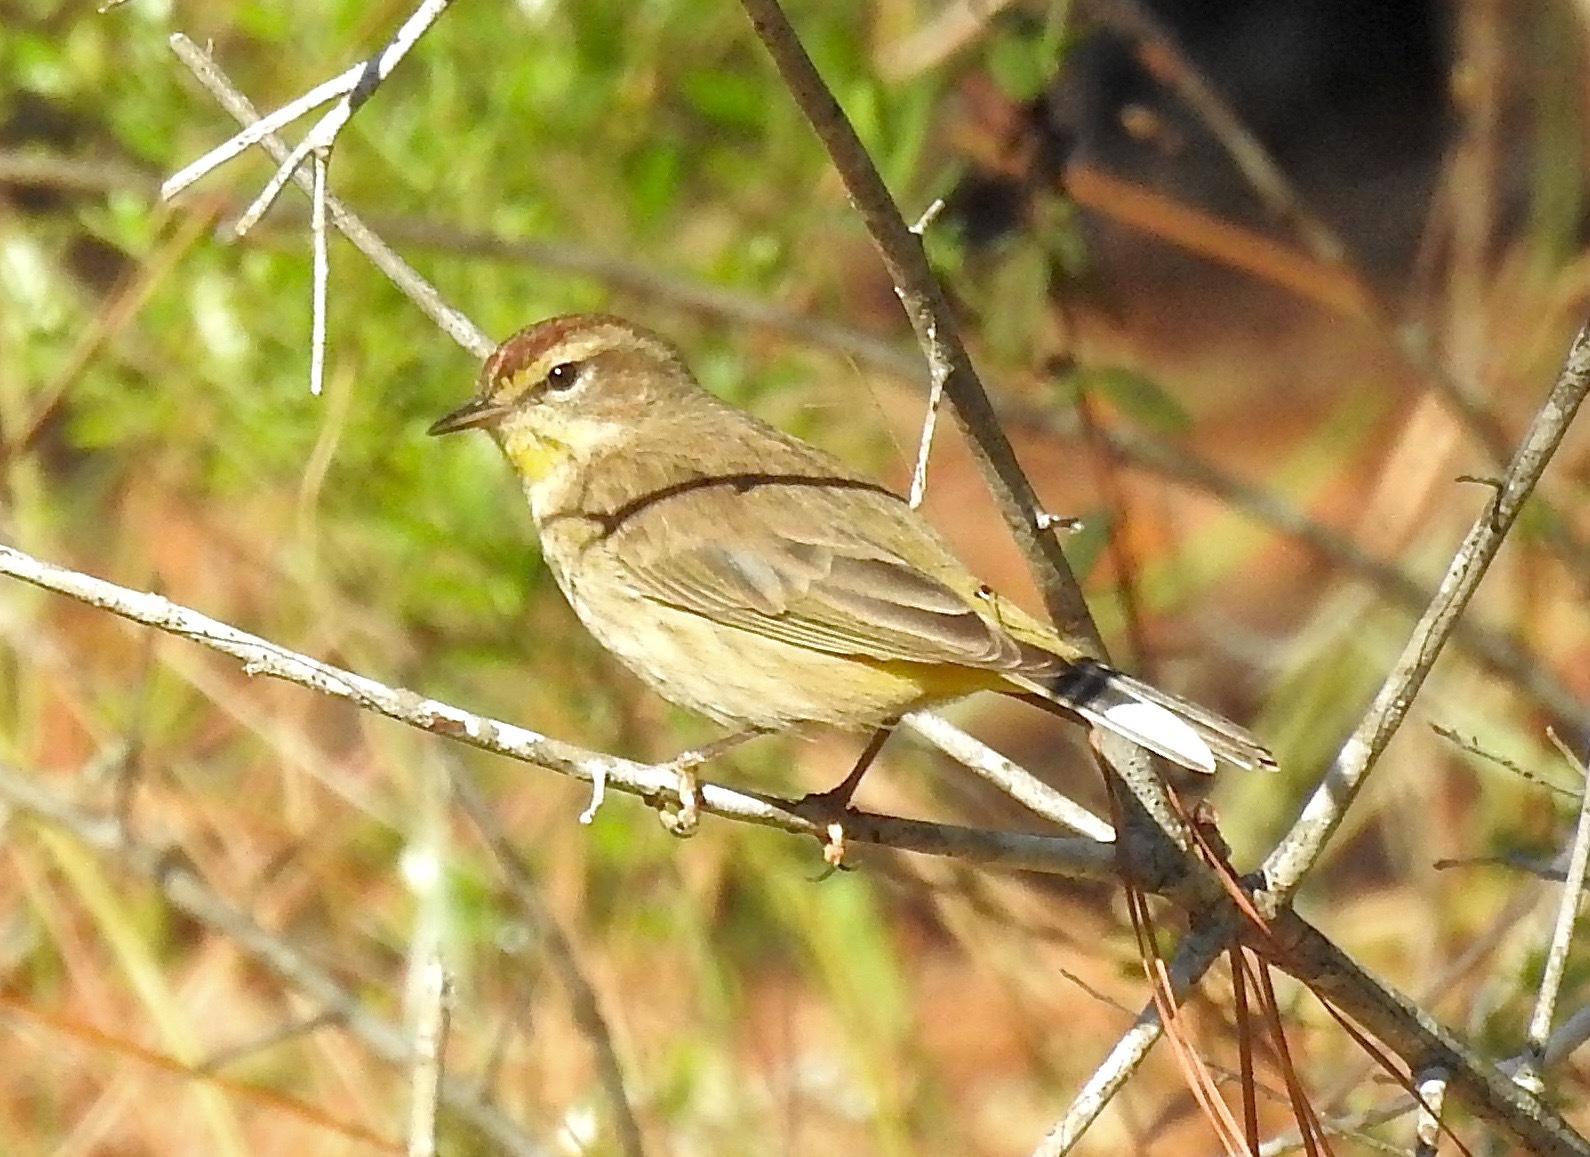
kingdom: Animalia
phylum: Chordata
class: Aves
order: Passeriformes
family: Parulidae
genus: Setophaga
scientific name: Setophaga palmarum
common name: Palm warbler
